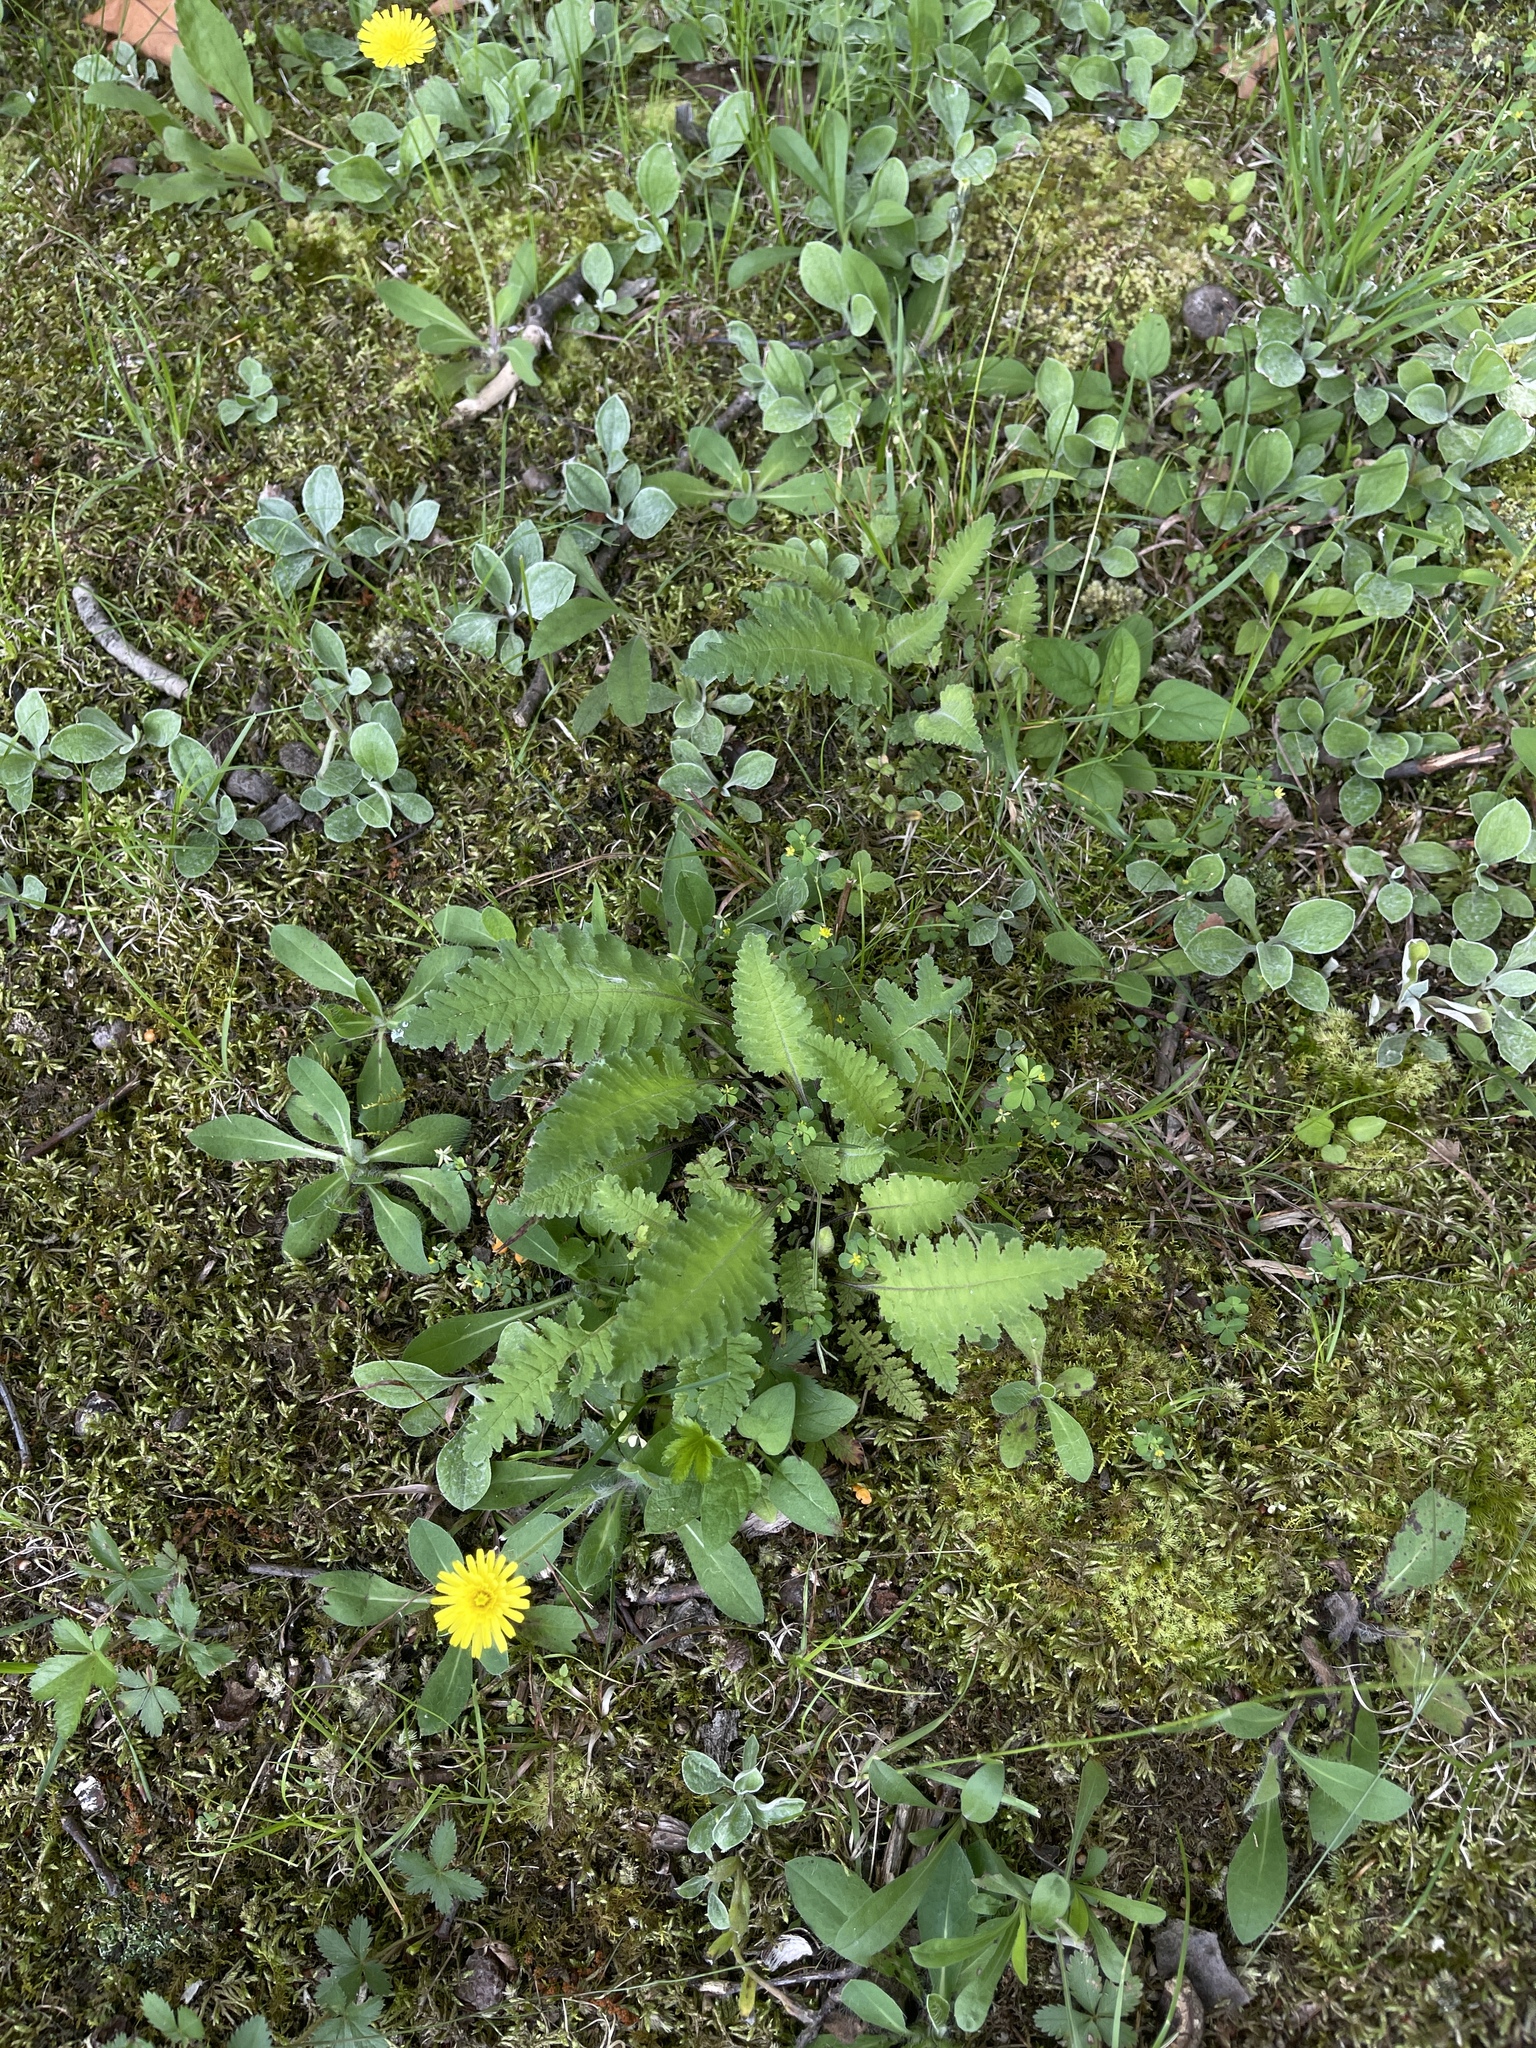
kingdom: Plantae
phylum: Tracheophyta
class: Magnoliopsida
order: Lamiales
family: Orobanchaceae
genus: Pedicularis
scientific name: Pedicularis canadensis
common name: Early lousewort
